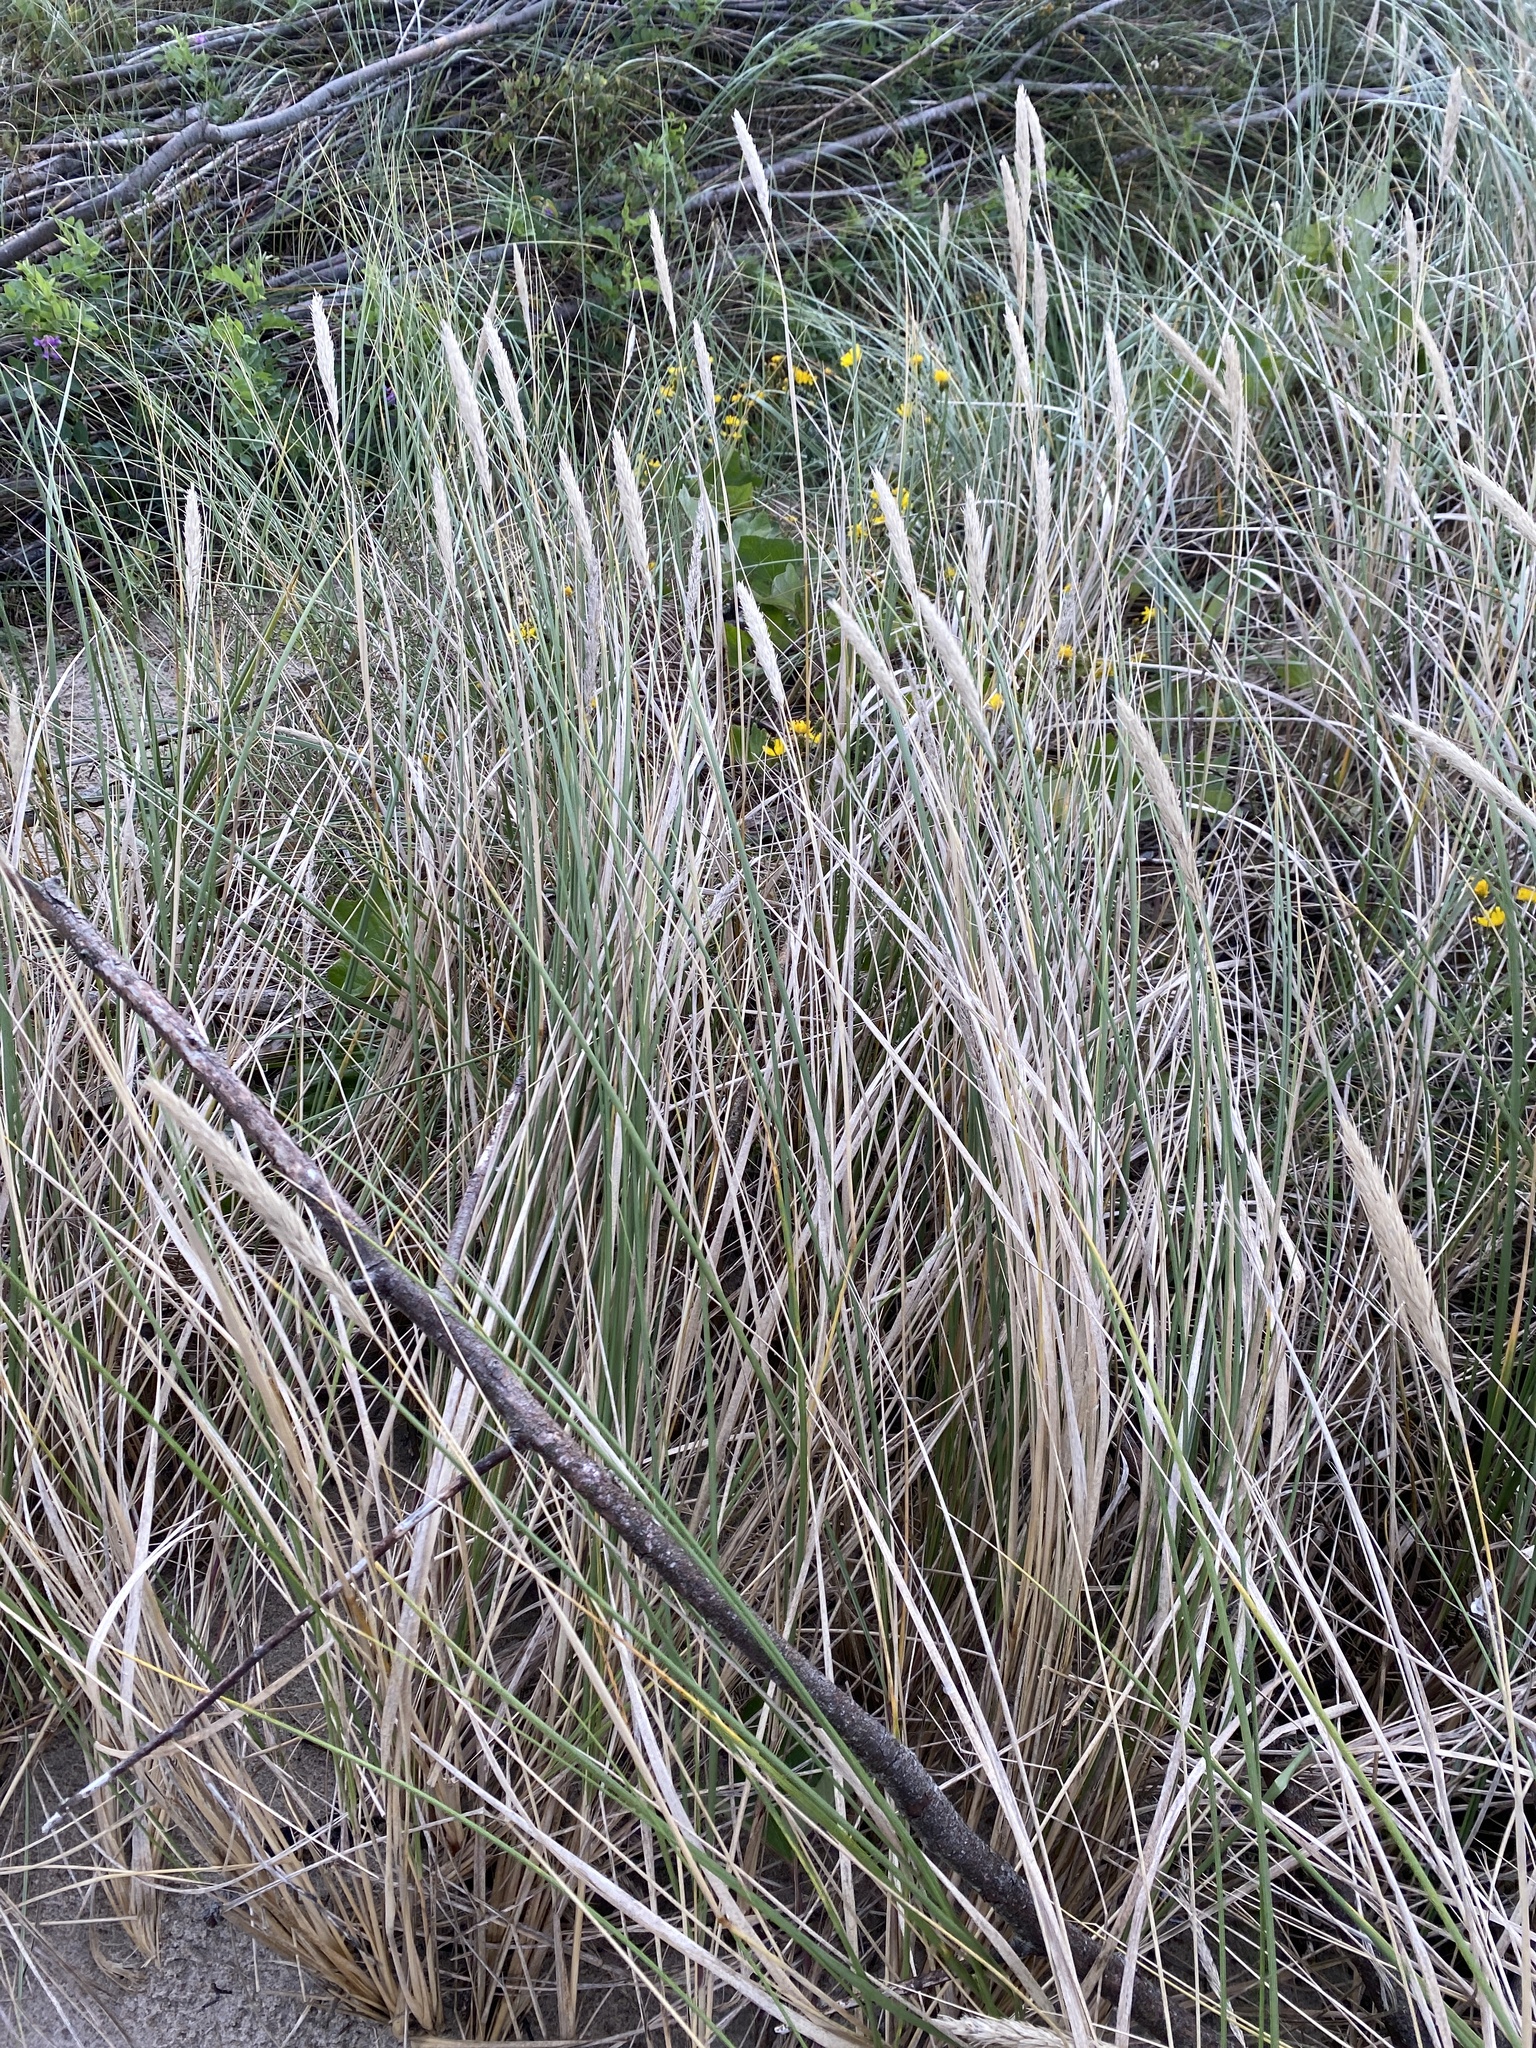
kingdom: Plantae
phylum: Tracheophyta
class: Liliopsida
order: Poales
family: Poaceae
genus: Calamagrostis
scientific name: Calamagrostis arenaria
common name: European beachgrass
